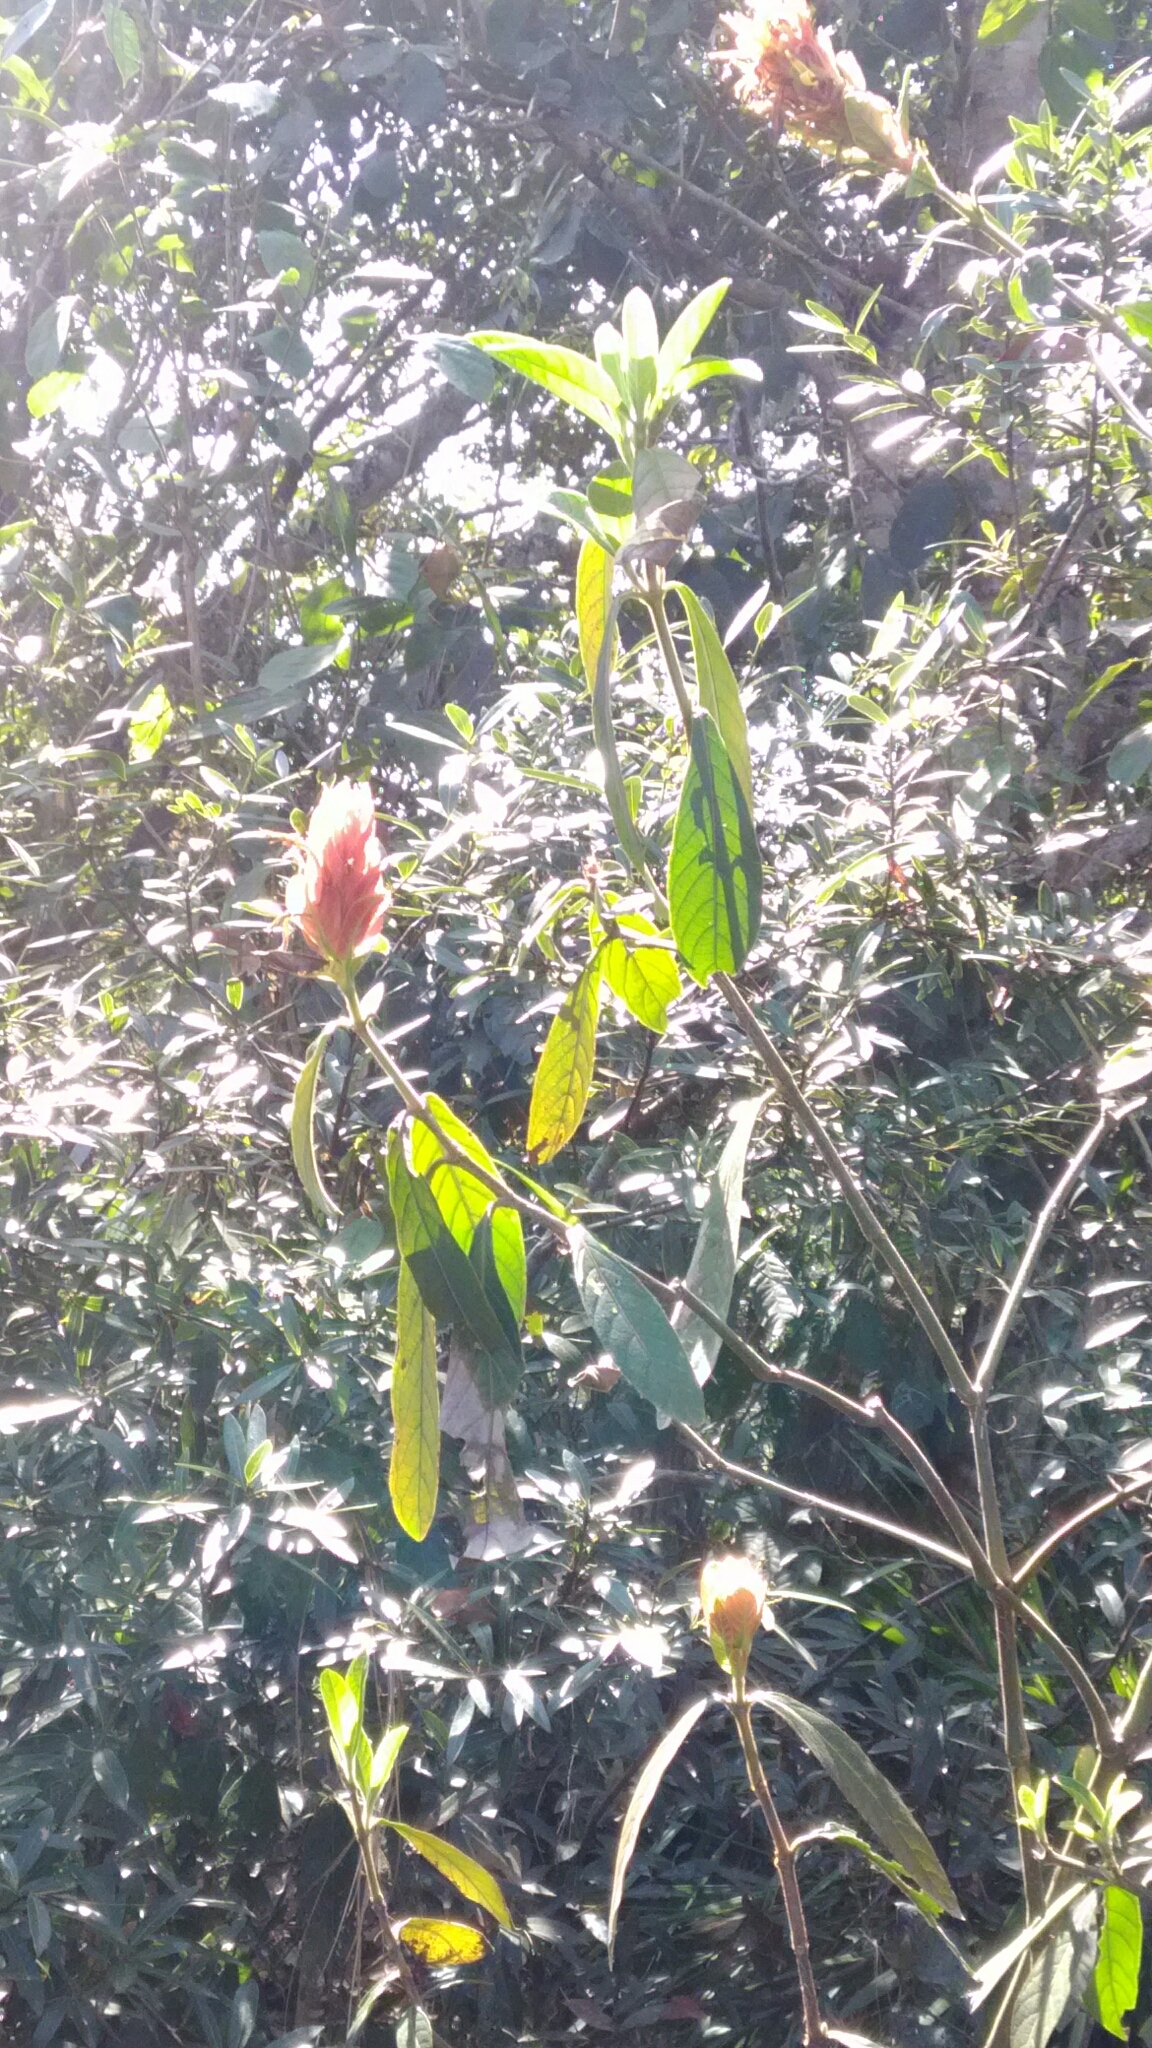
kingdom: Plantae
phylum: Tracheophyta
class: Magnoliopsida
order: Lamiales
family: Acanthaceae
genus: Justicia
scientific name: Justicia riparia
